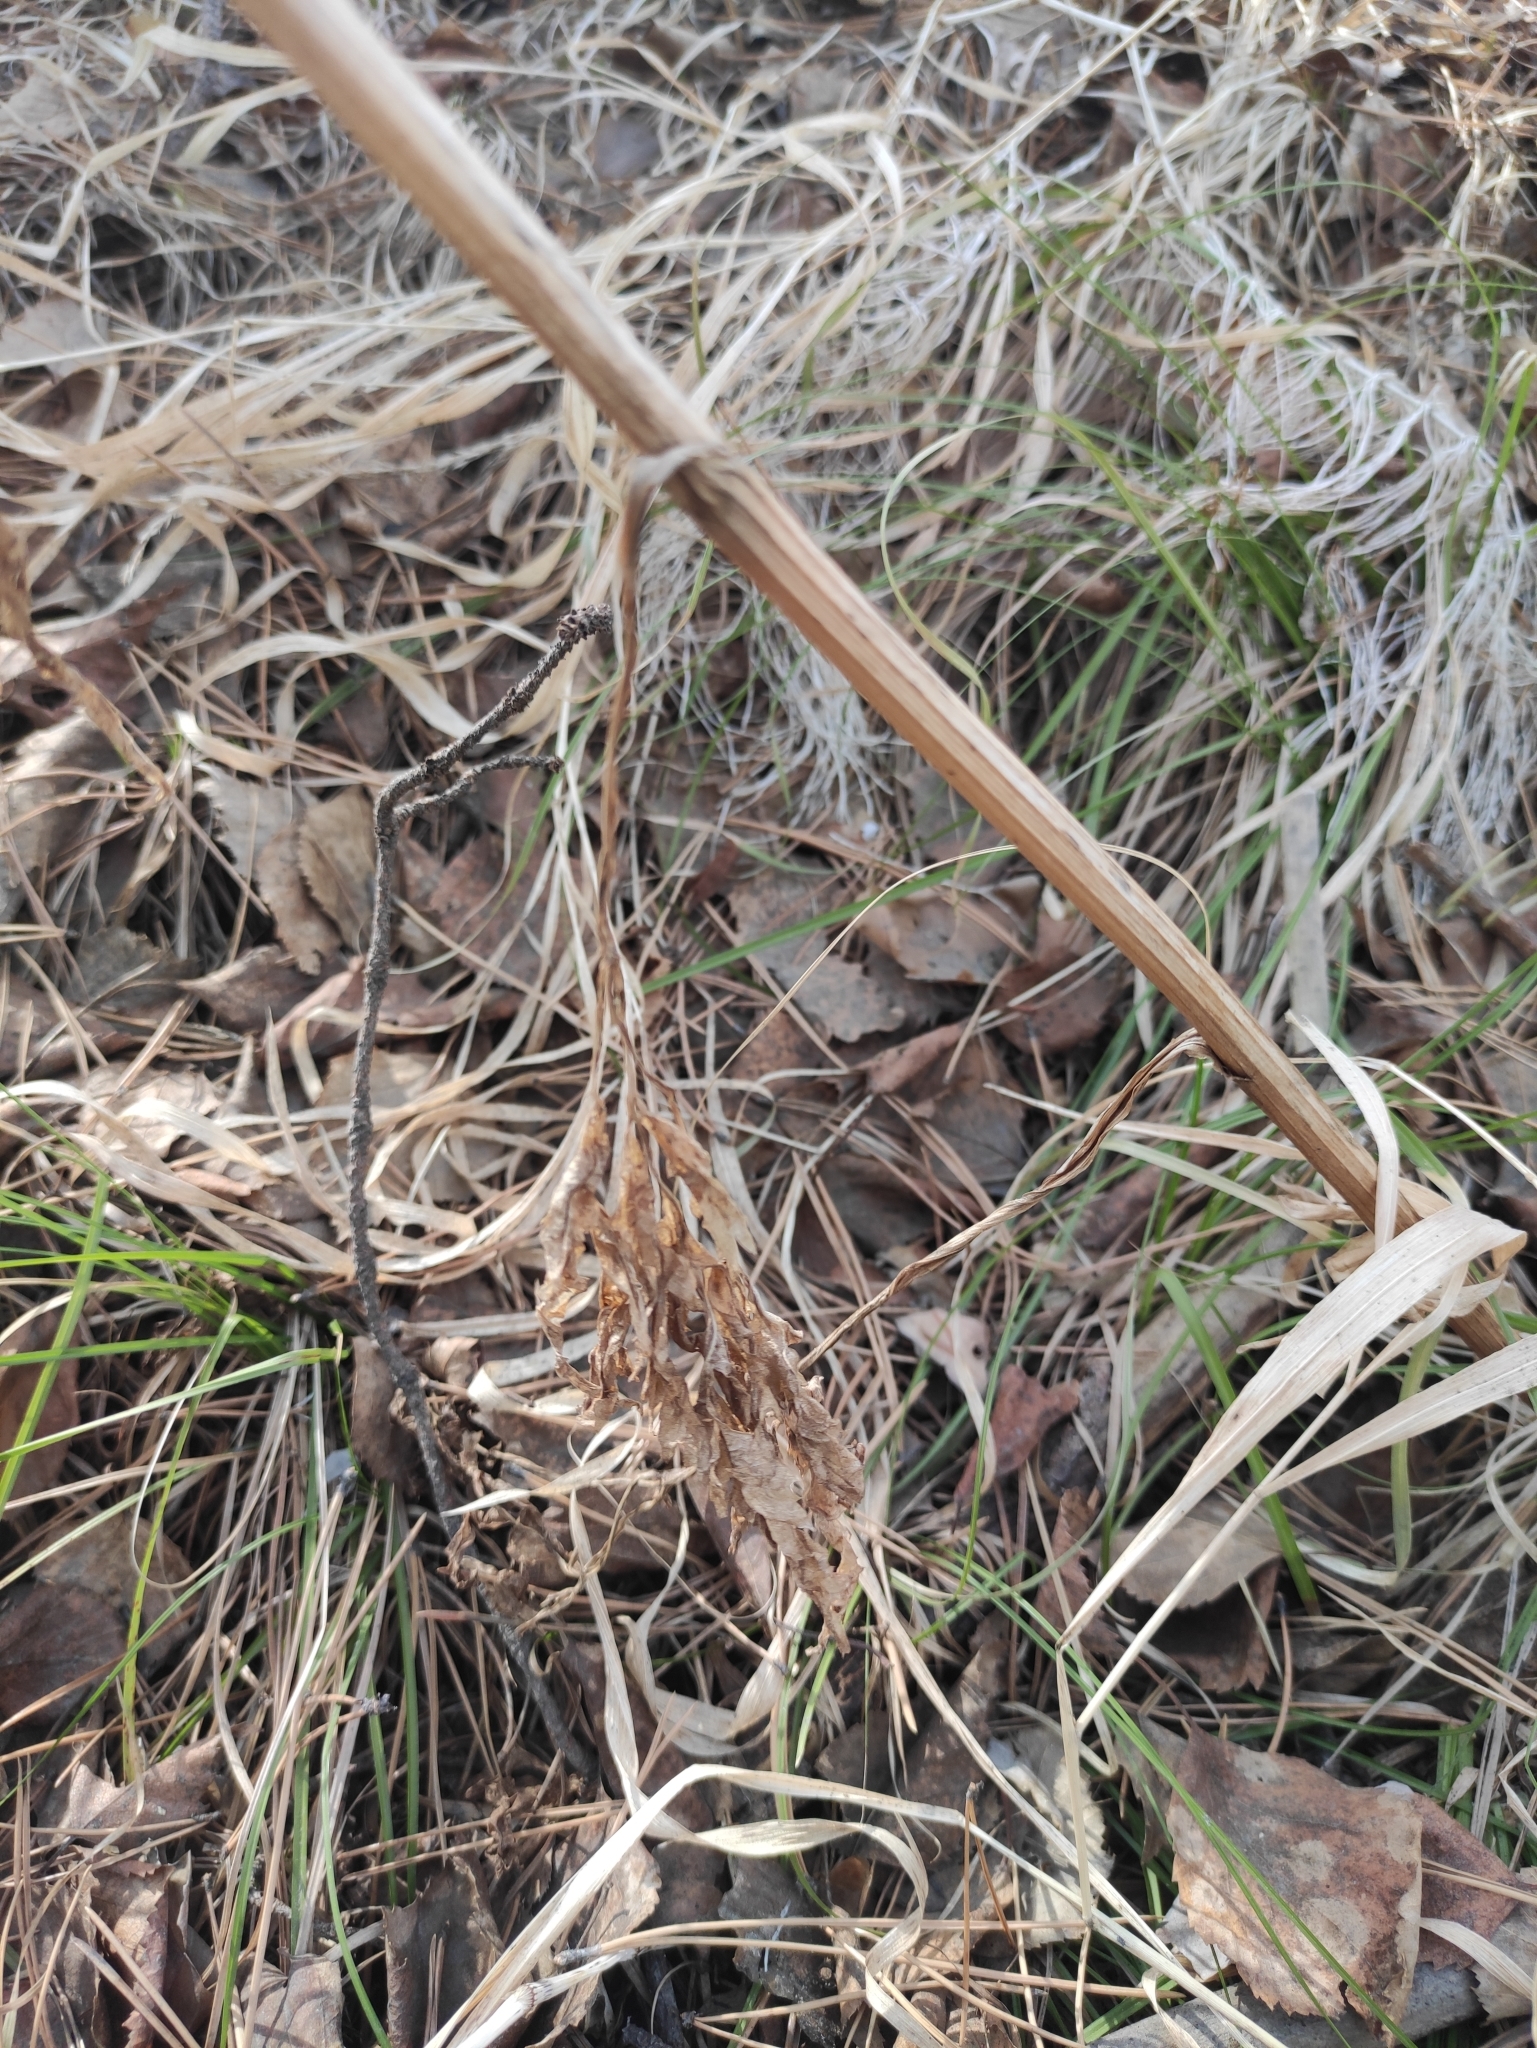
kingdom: Plantae
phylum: Tracheophyta
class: Magnoliopsida
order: Apiales
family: Apiaceae
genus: Pleurospermum
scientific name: Pleurospermum uralense
